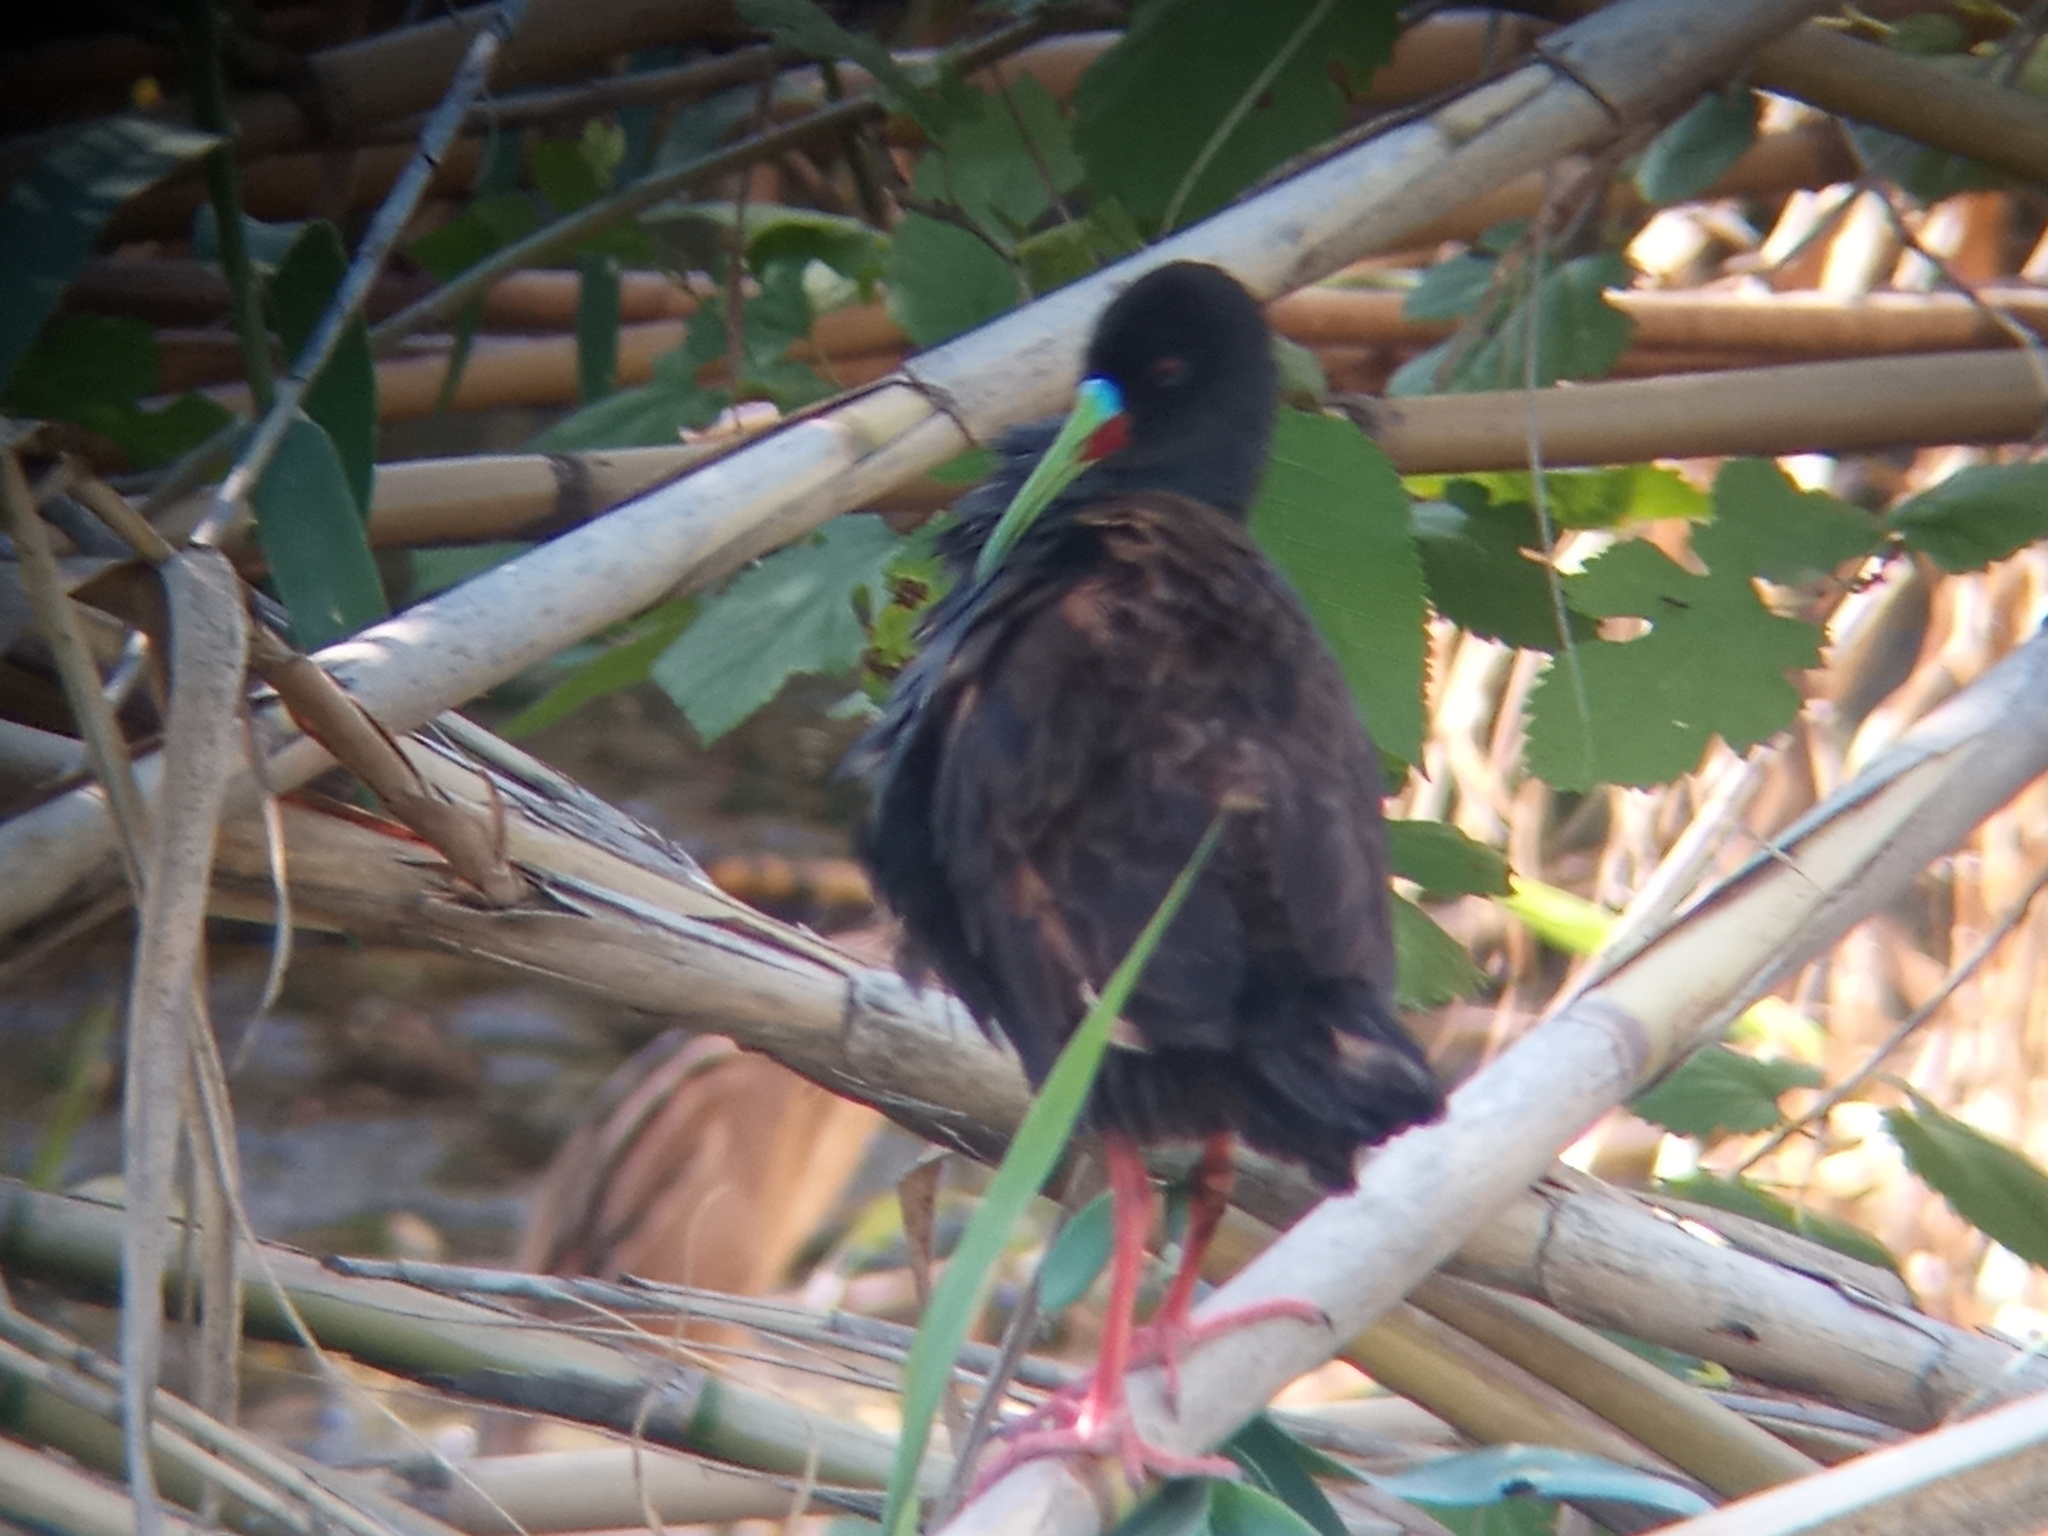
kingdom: Animalia
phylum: Chordata
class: Aves
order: Gruiformes
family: Rallidae
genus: Pardirallus
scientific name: Pardirallus sanguinolentus
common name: Plumbeous rail
